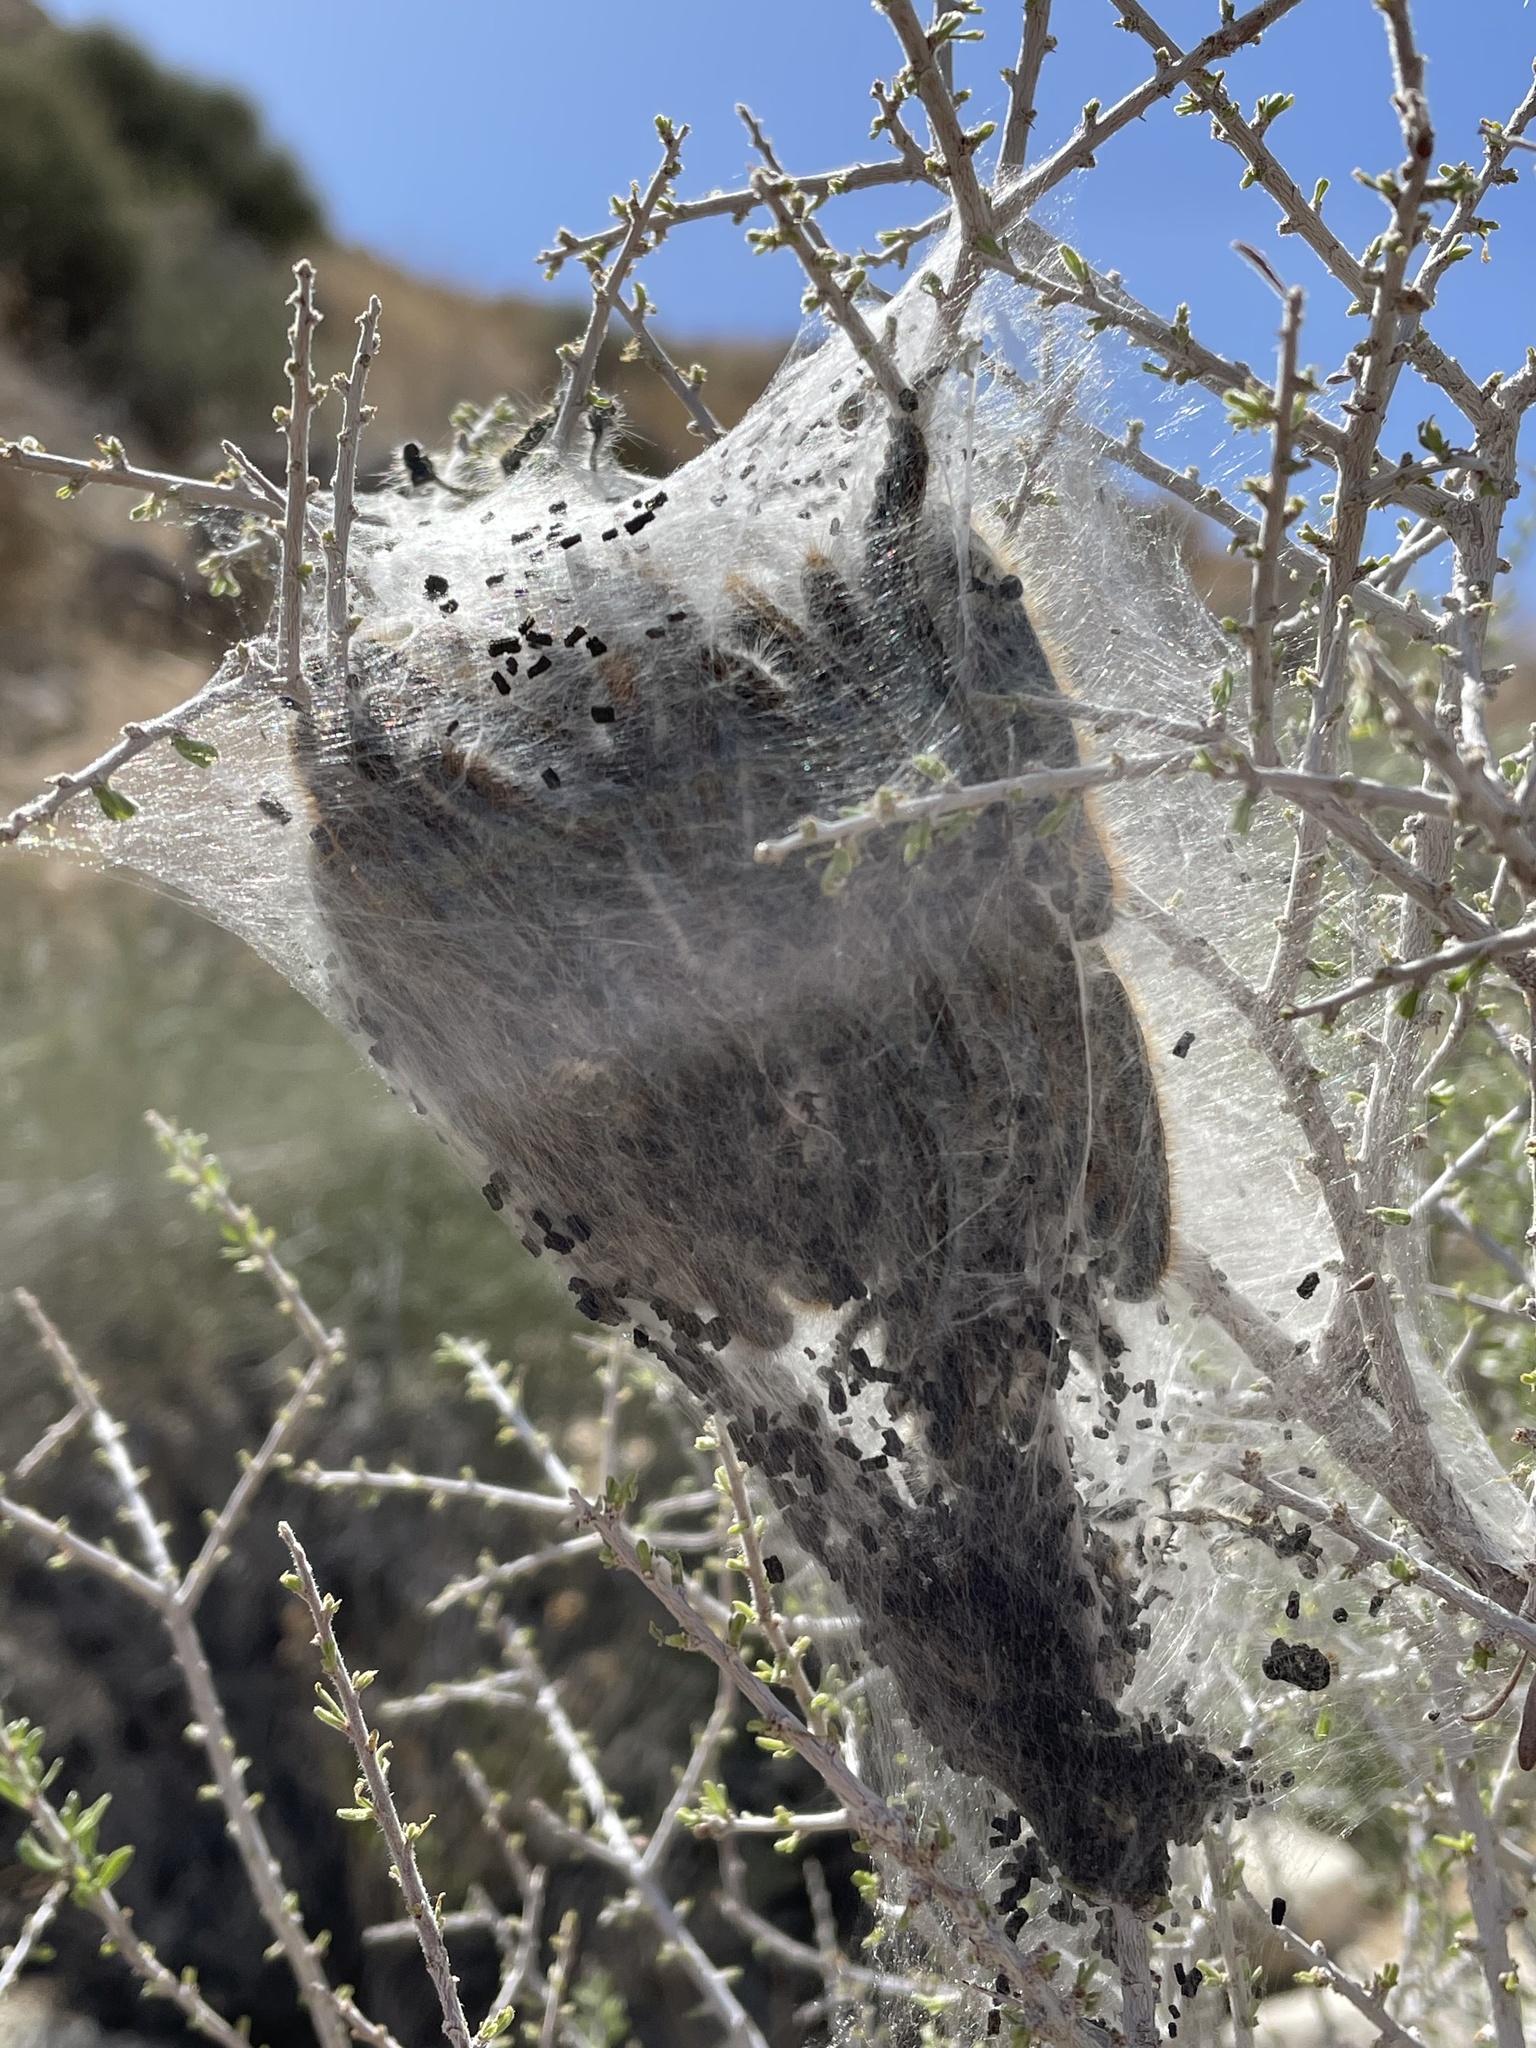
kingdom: Animalia
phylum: Arthropoda
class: Insecta
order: Lepidoptera
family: Lasiocampidae
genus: Malacosoma
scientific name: Malacosoma californica
